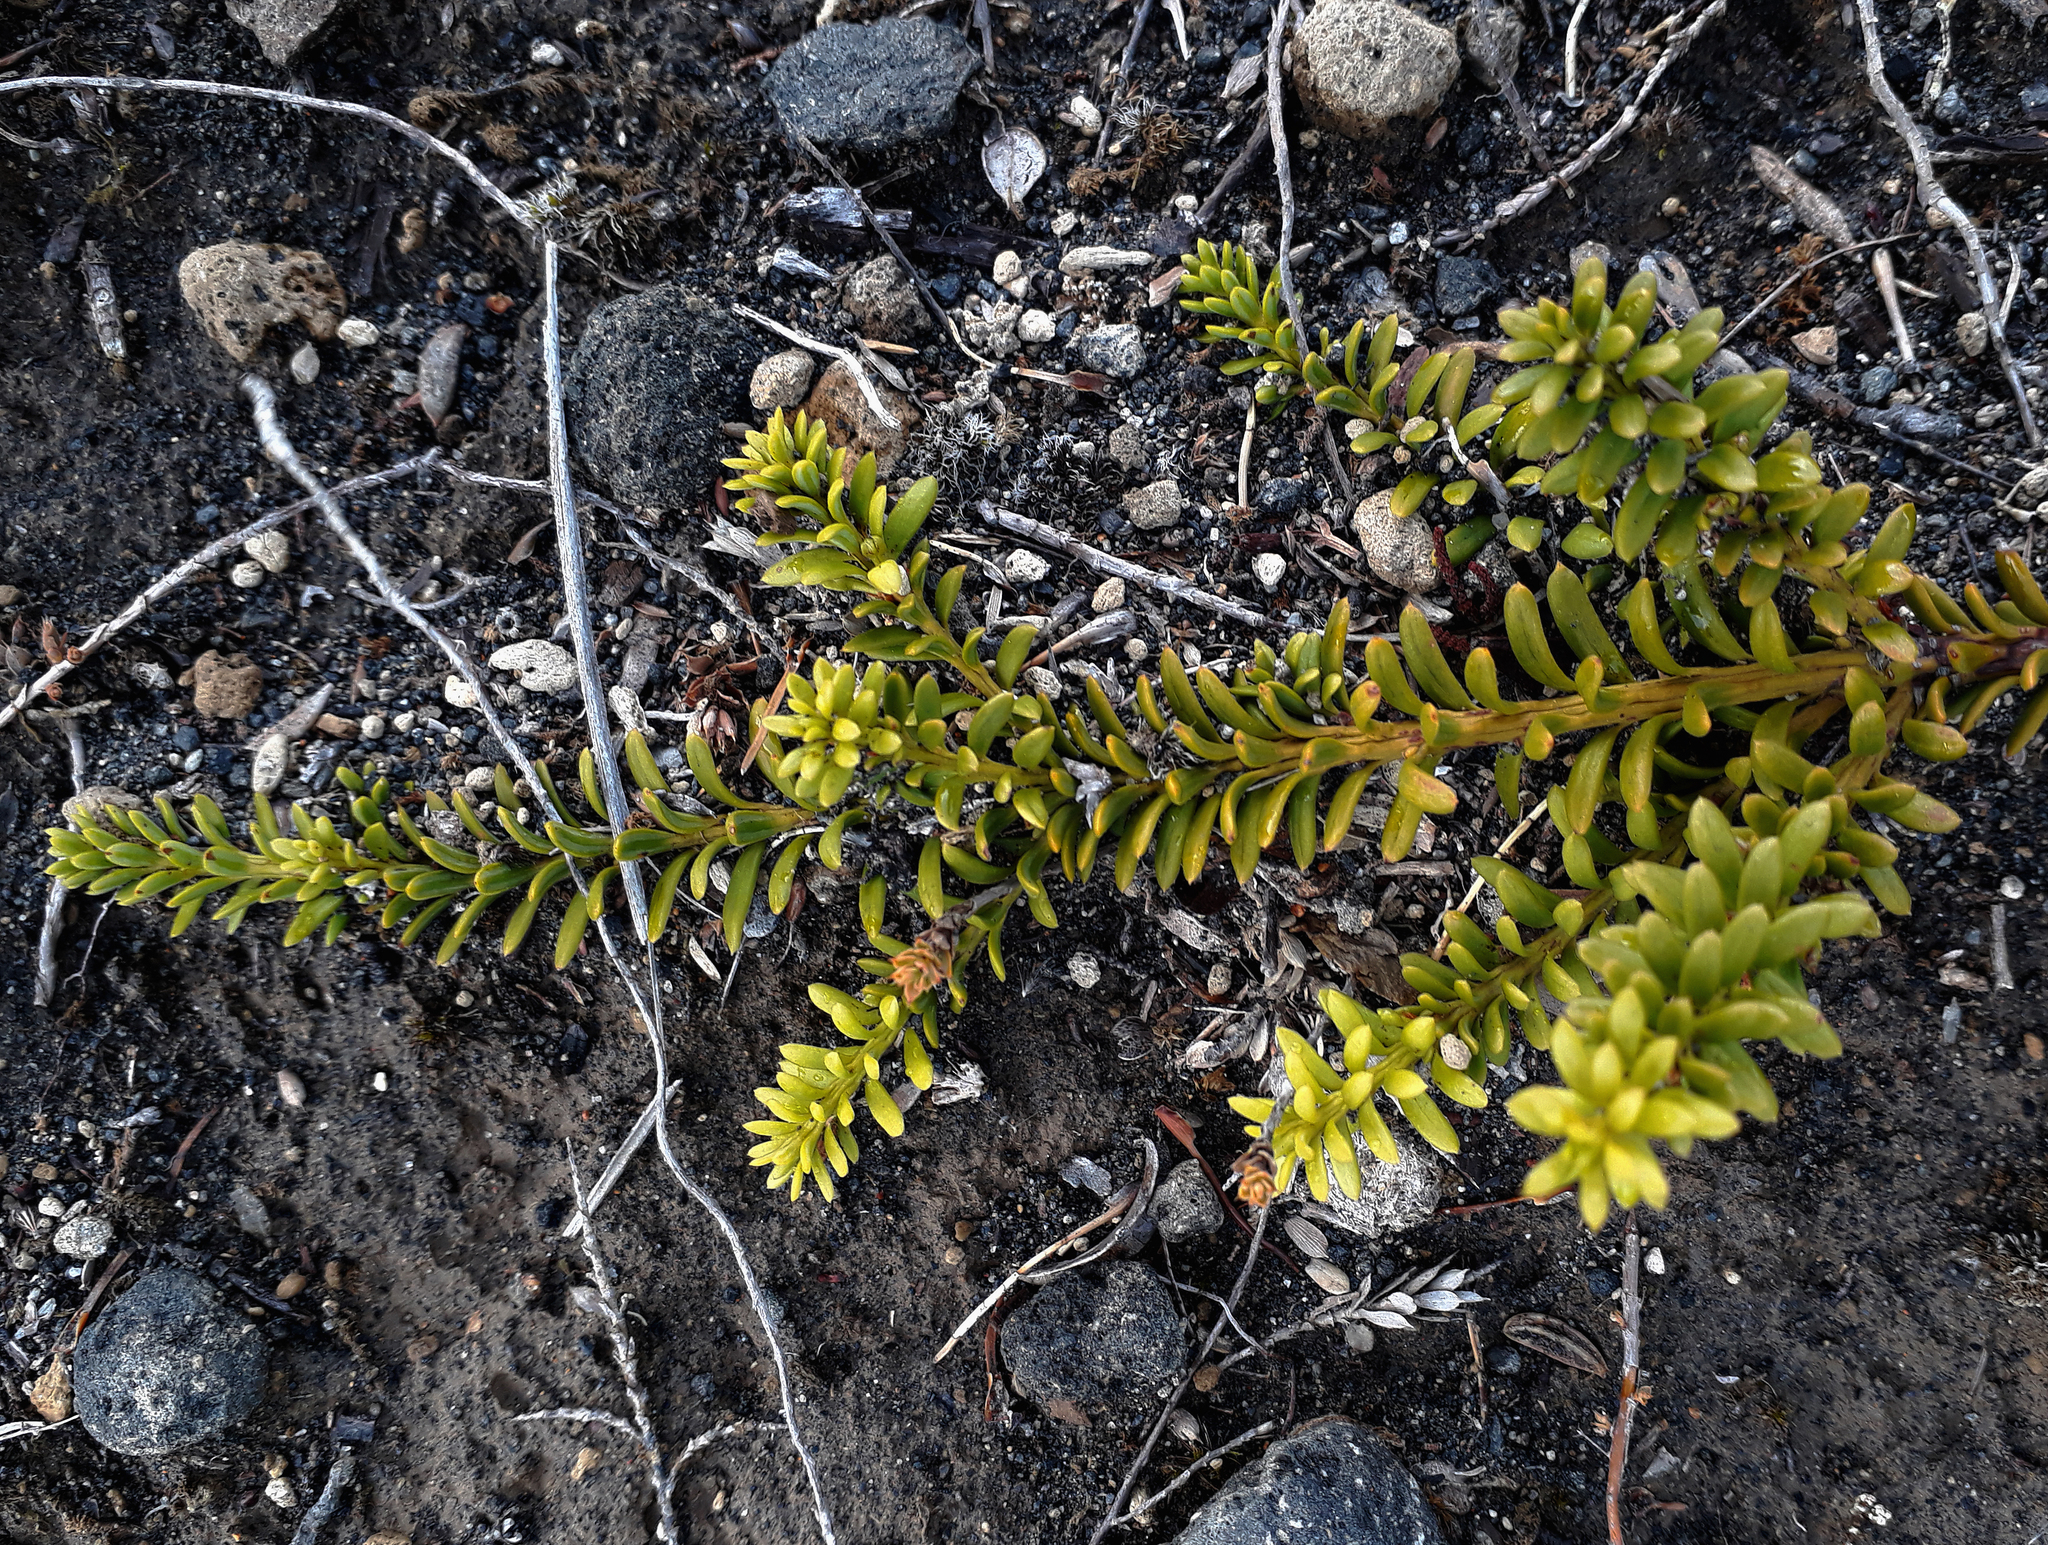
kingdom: Plantae
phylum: Tracheophyta
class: Pinopsida
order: Pinales
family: Podocarpaceae
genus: Podocarpus
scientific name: Podocarpus nivalis
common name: Alpine totara
